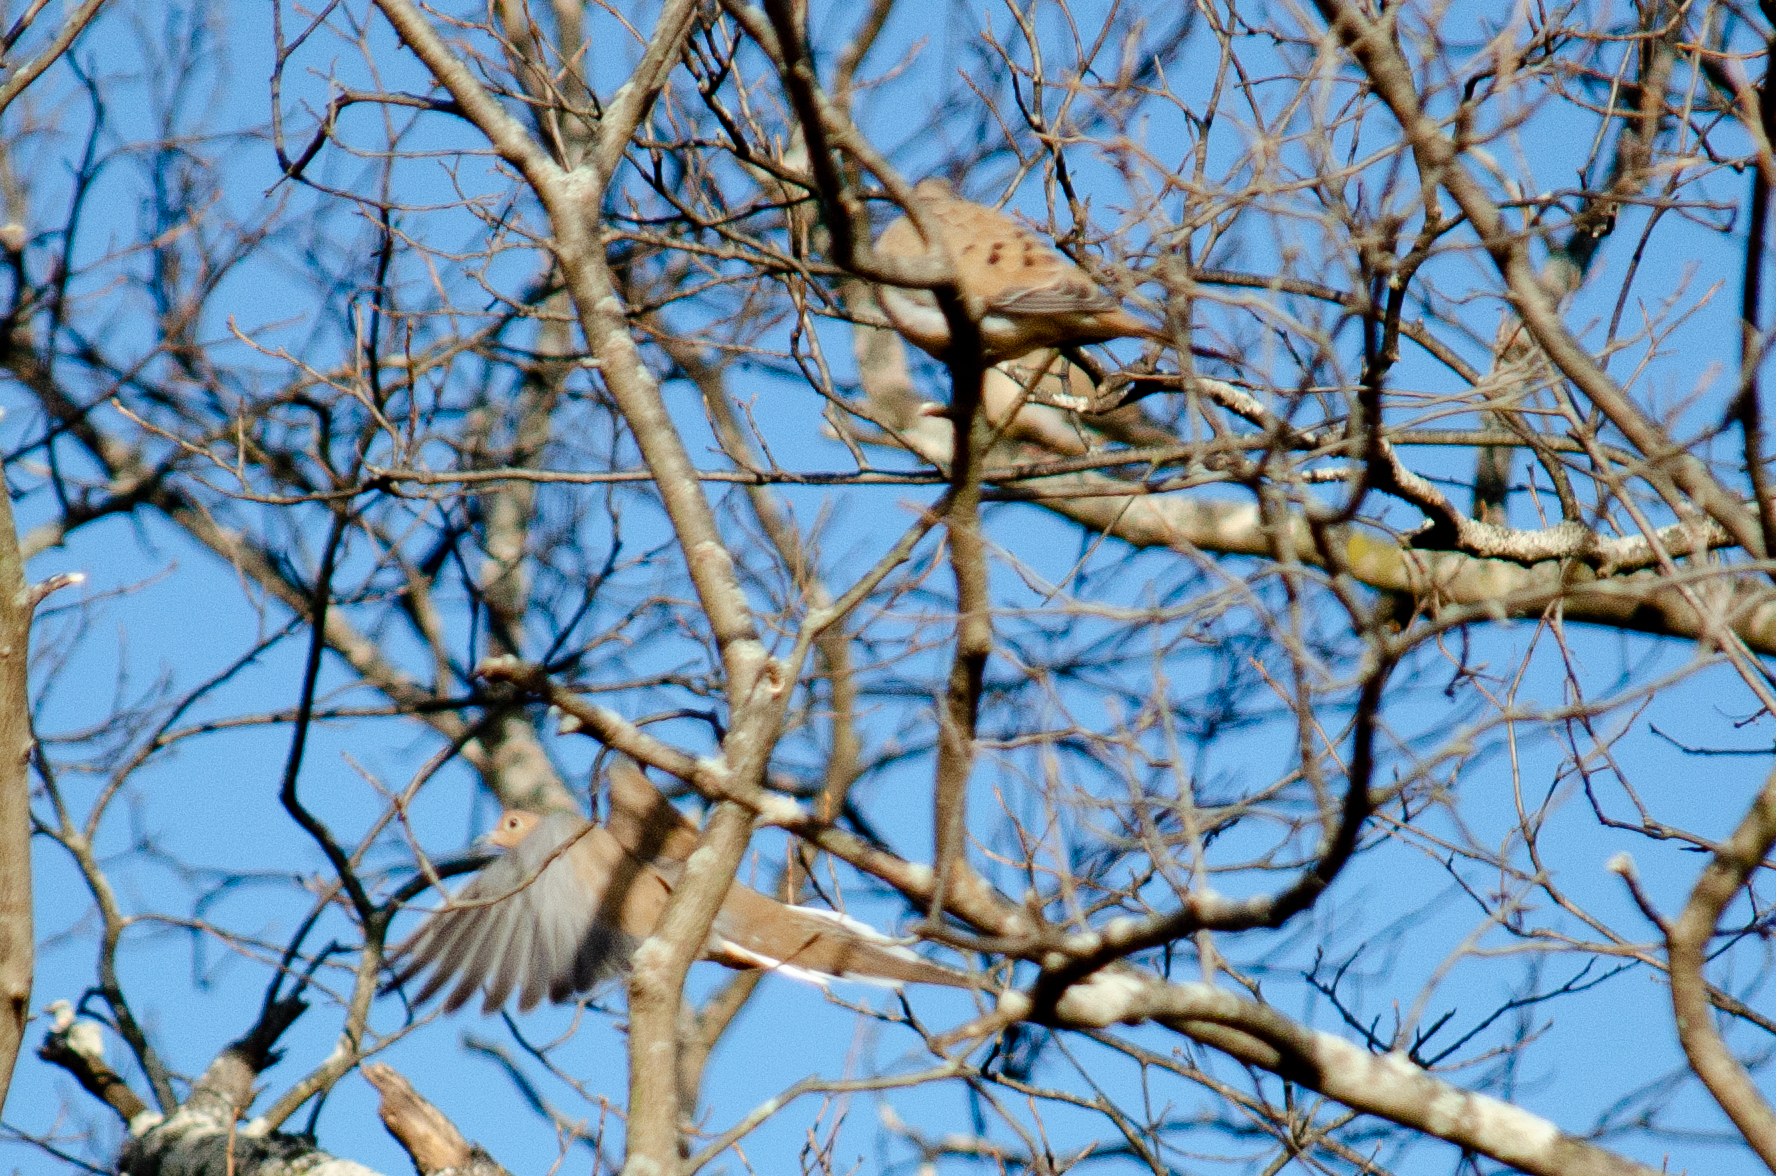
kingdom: Animalia
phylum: Chordata
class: Aves
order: Columbiformes
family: Columbidae
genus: Zenaida
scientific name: Zenaida macroura
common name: Mourning dove
